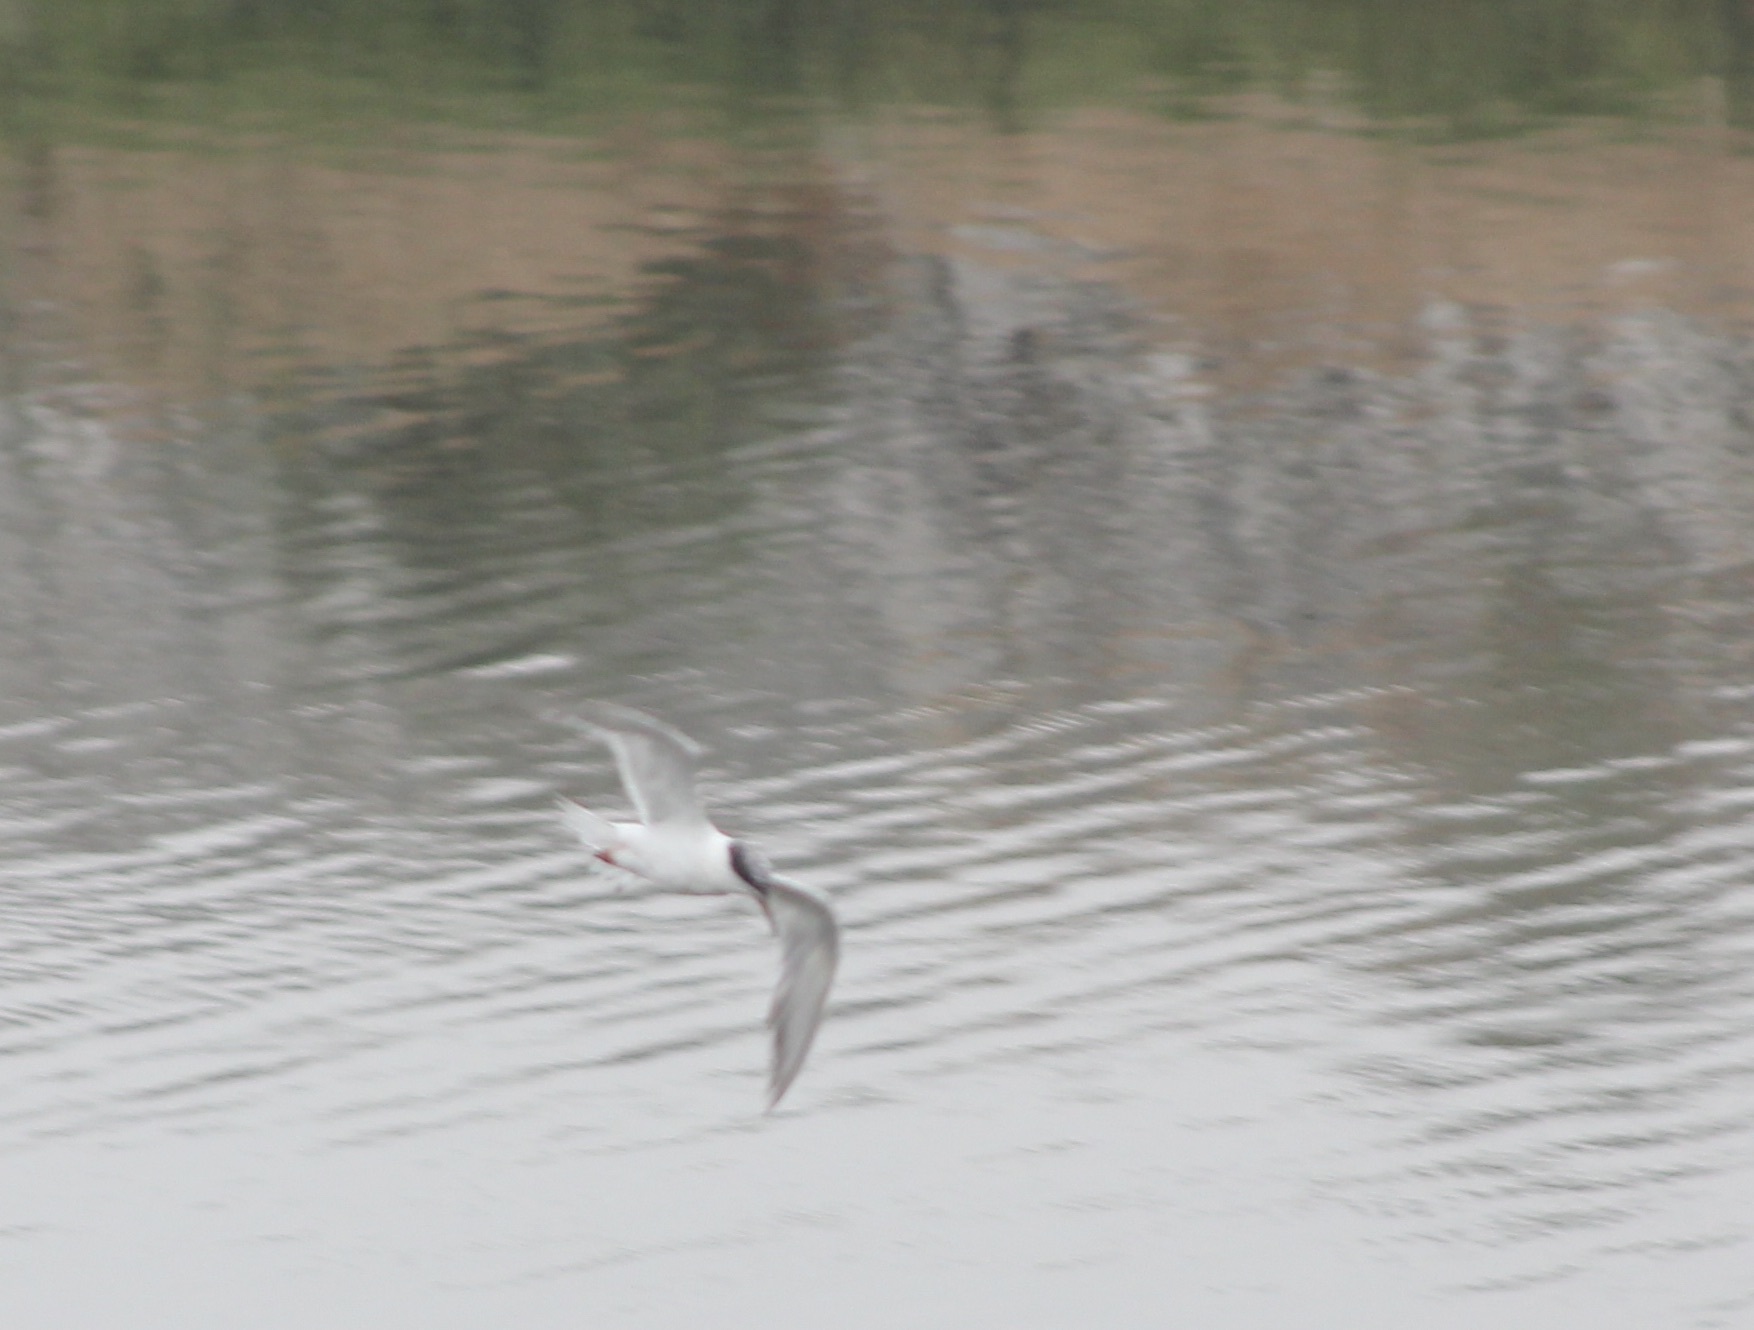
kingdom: Animalia
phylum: Chordata
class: Aves
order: Charadriiformes
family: Laridae
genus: Sterna
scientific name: Sterna forsteri
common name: Forster's tern
